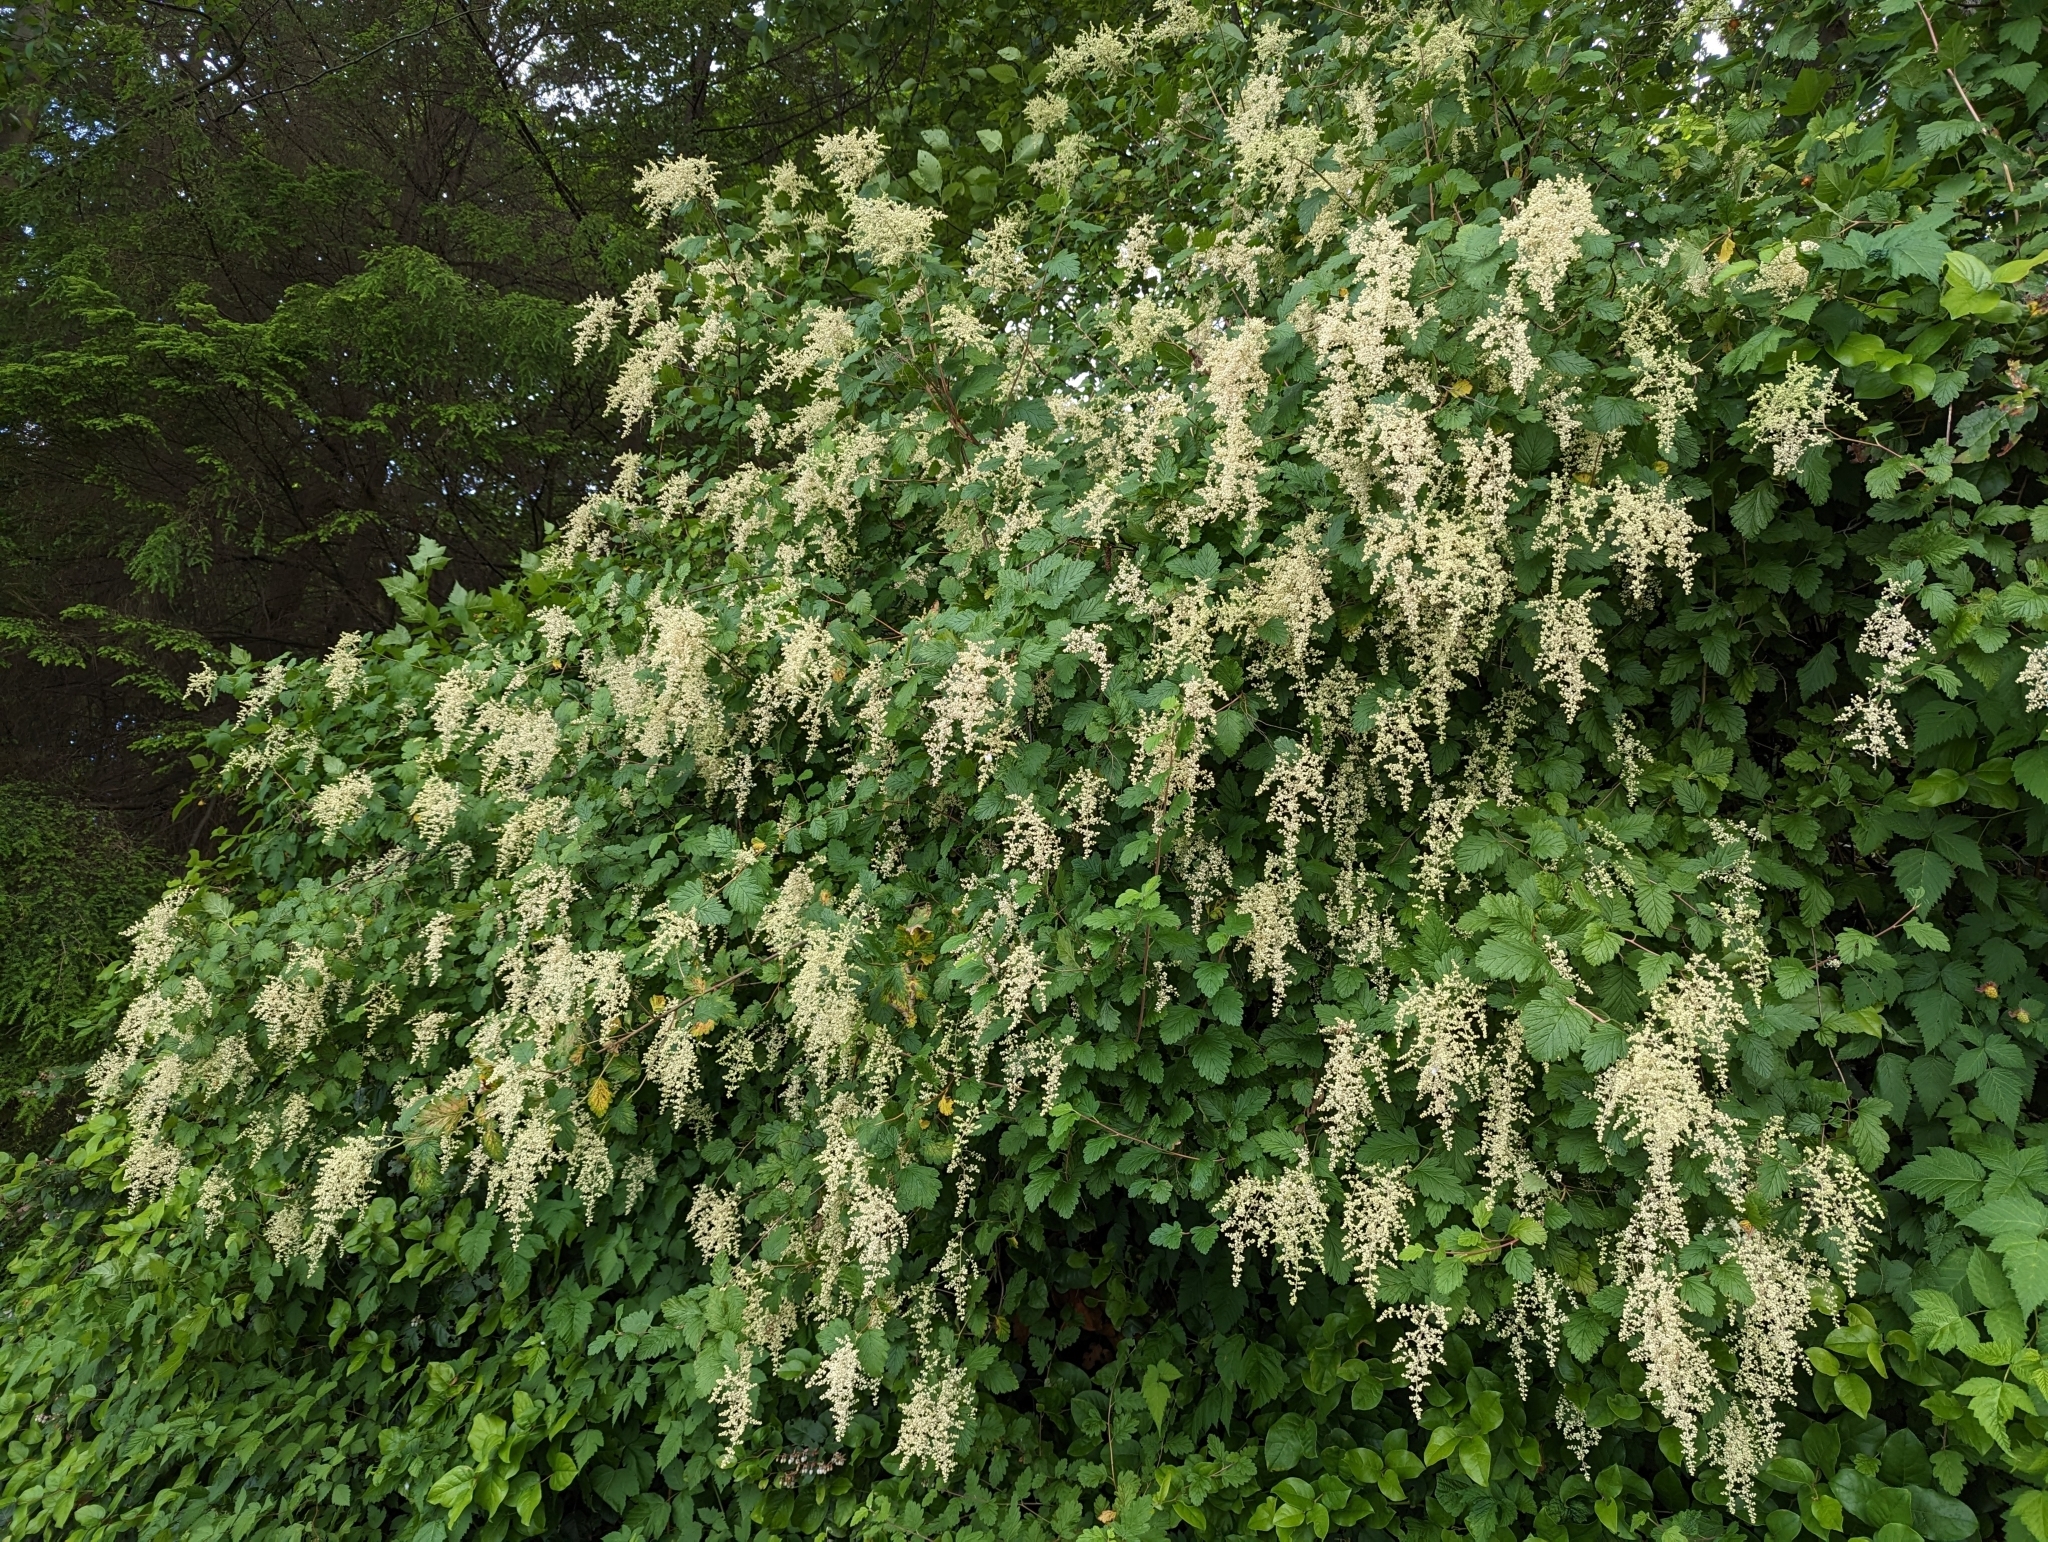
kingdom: Plantae
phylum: Tracheophyta
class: Magnoliopsida
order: Rosales
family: Rosaceae
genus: Holodiscus
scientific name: Holodiscus discolor
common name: Oceanspray
